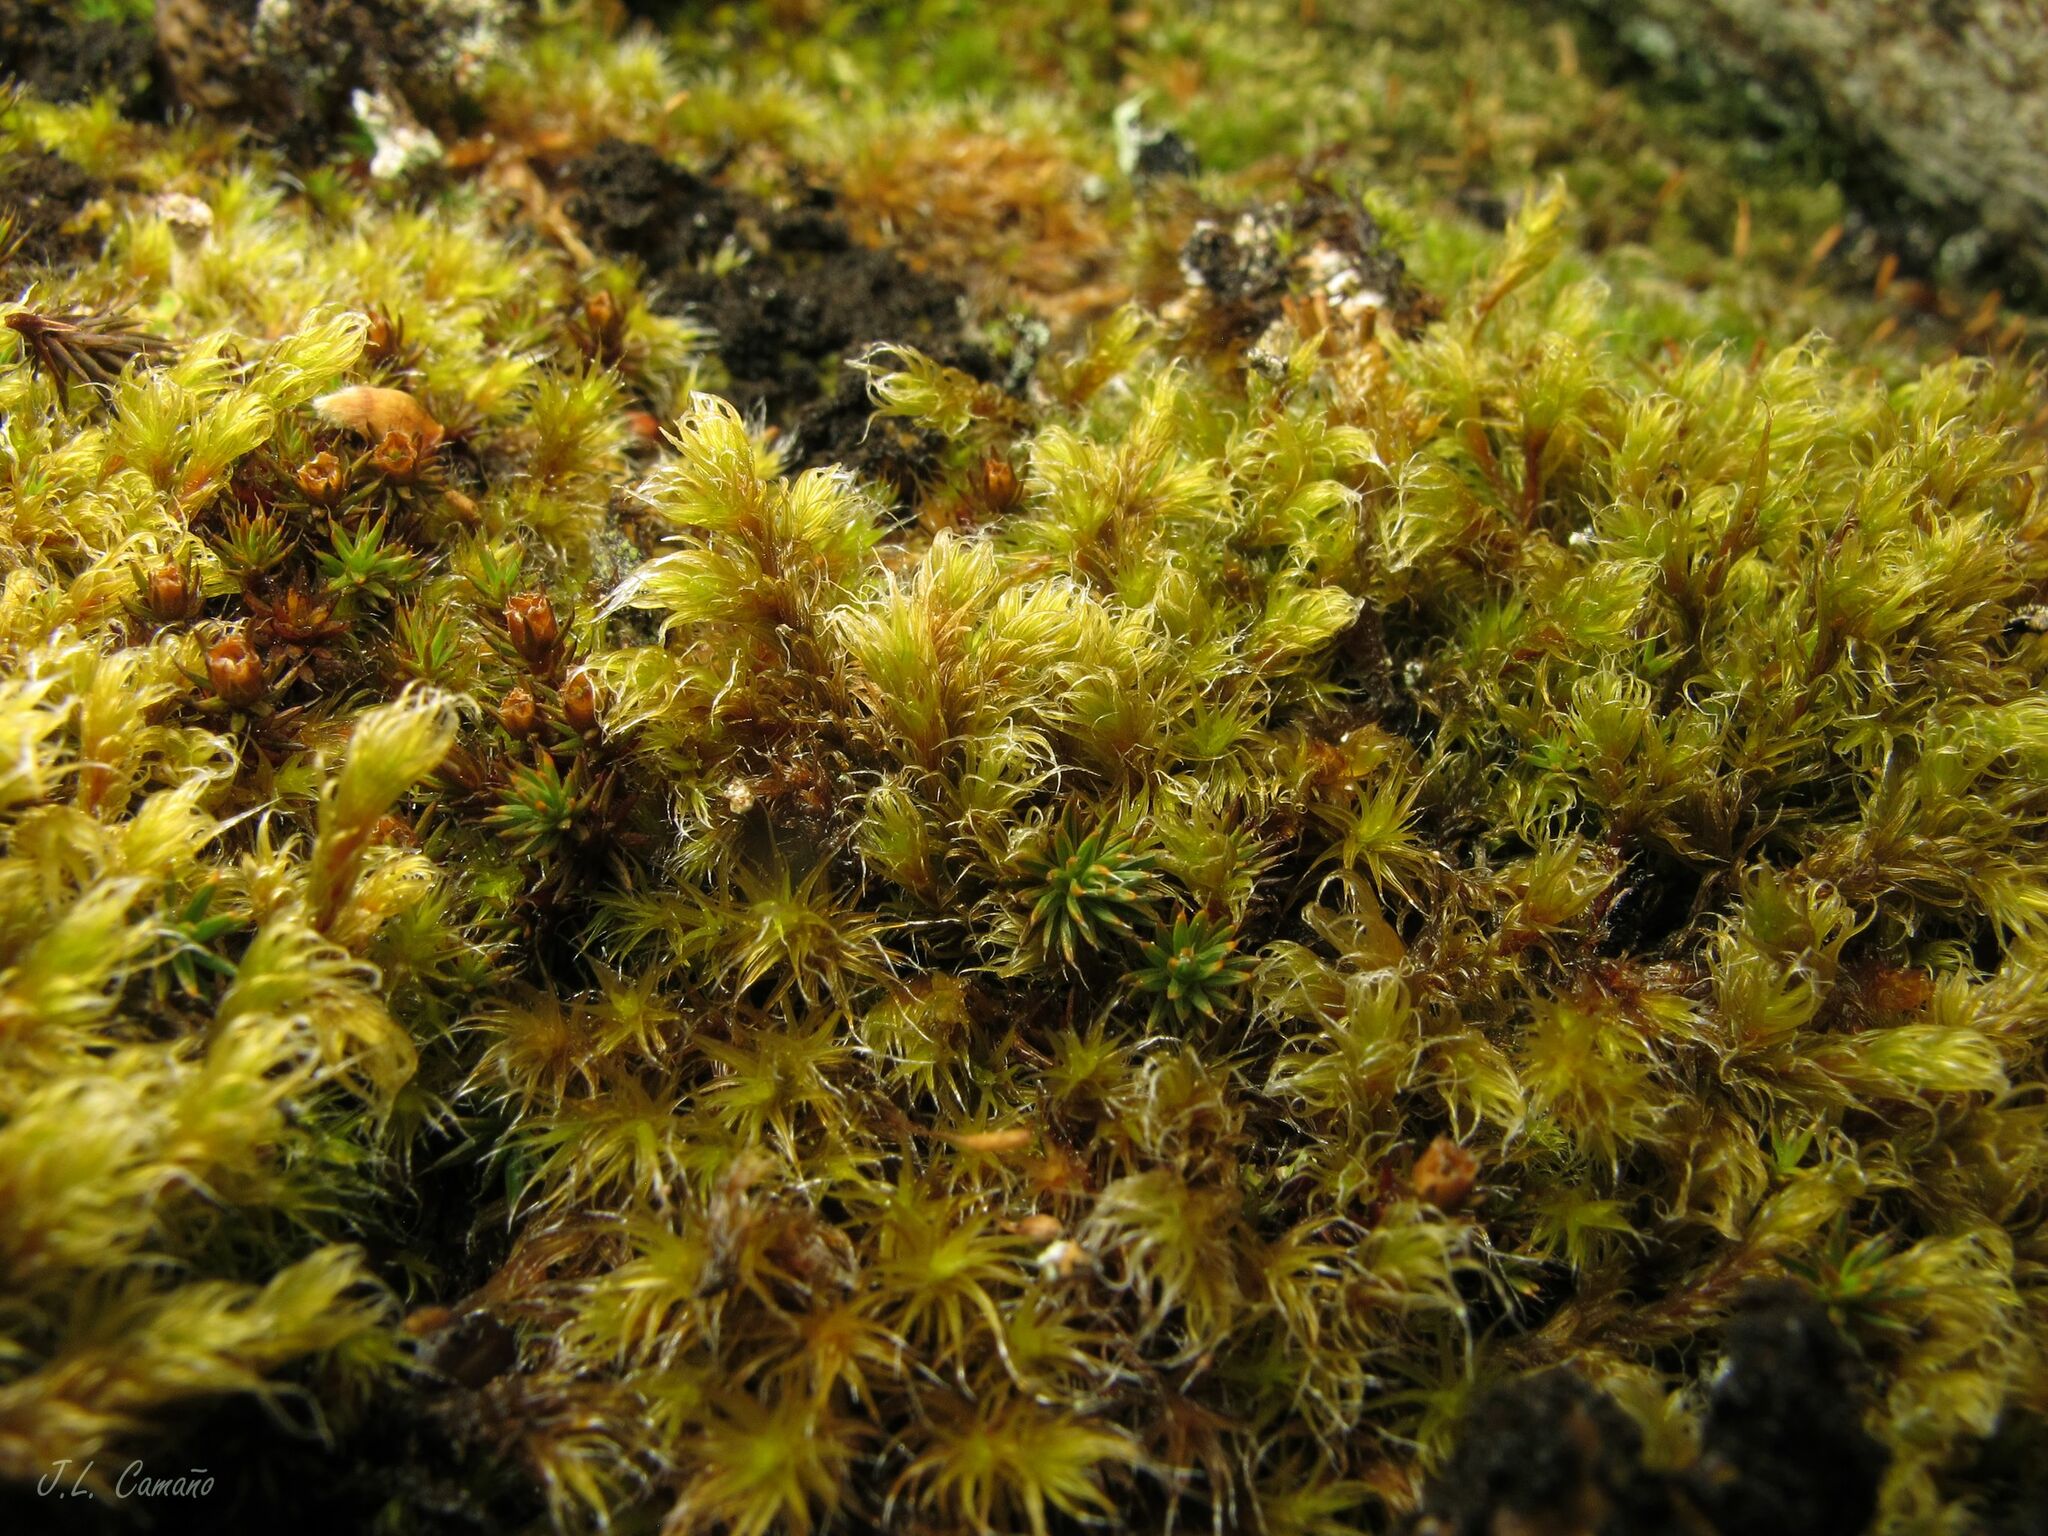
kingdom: Plantae
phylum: Bryophyta
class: Bryopsida
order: Grimmiales
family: Grimmiaceae
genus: Racomitrium
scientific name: Racomitrium lanuginosum
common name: Hoary rock moss
